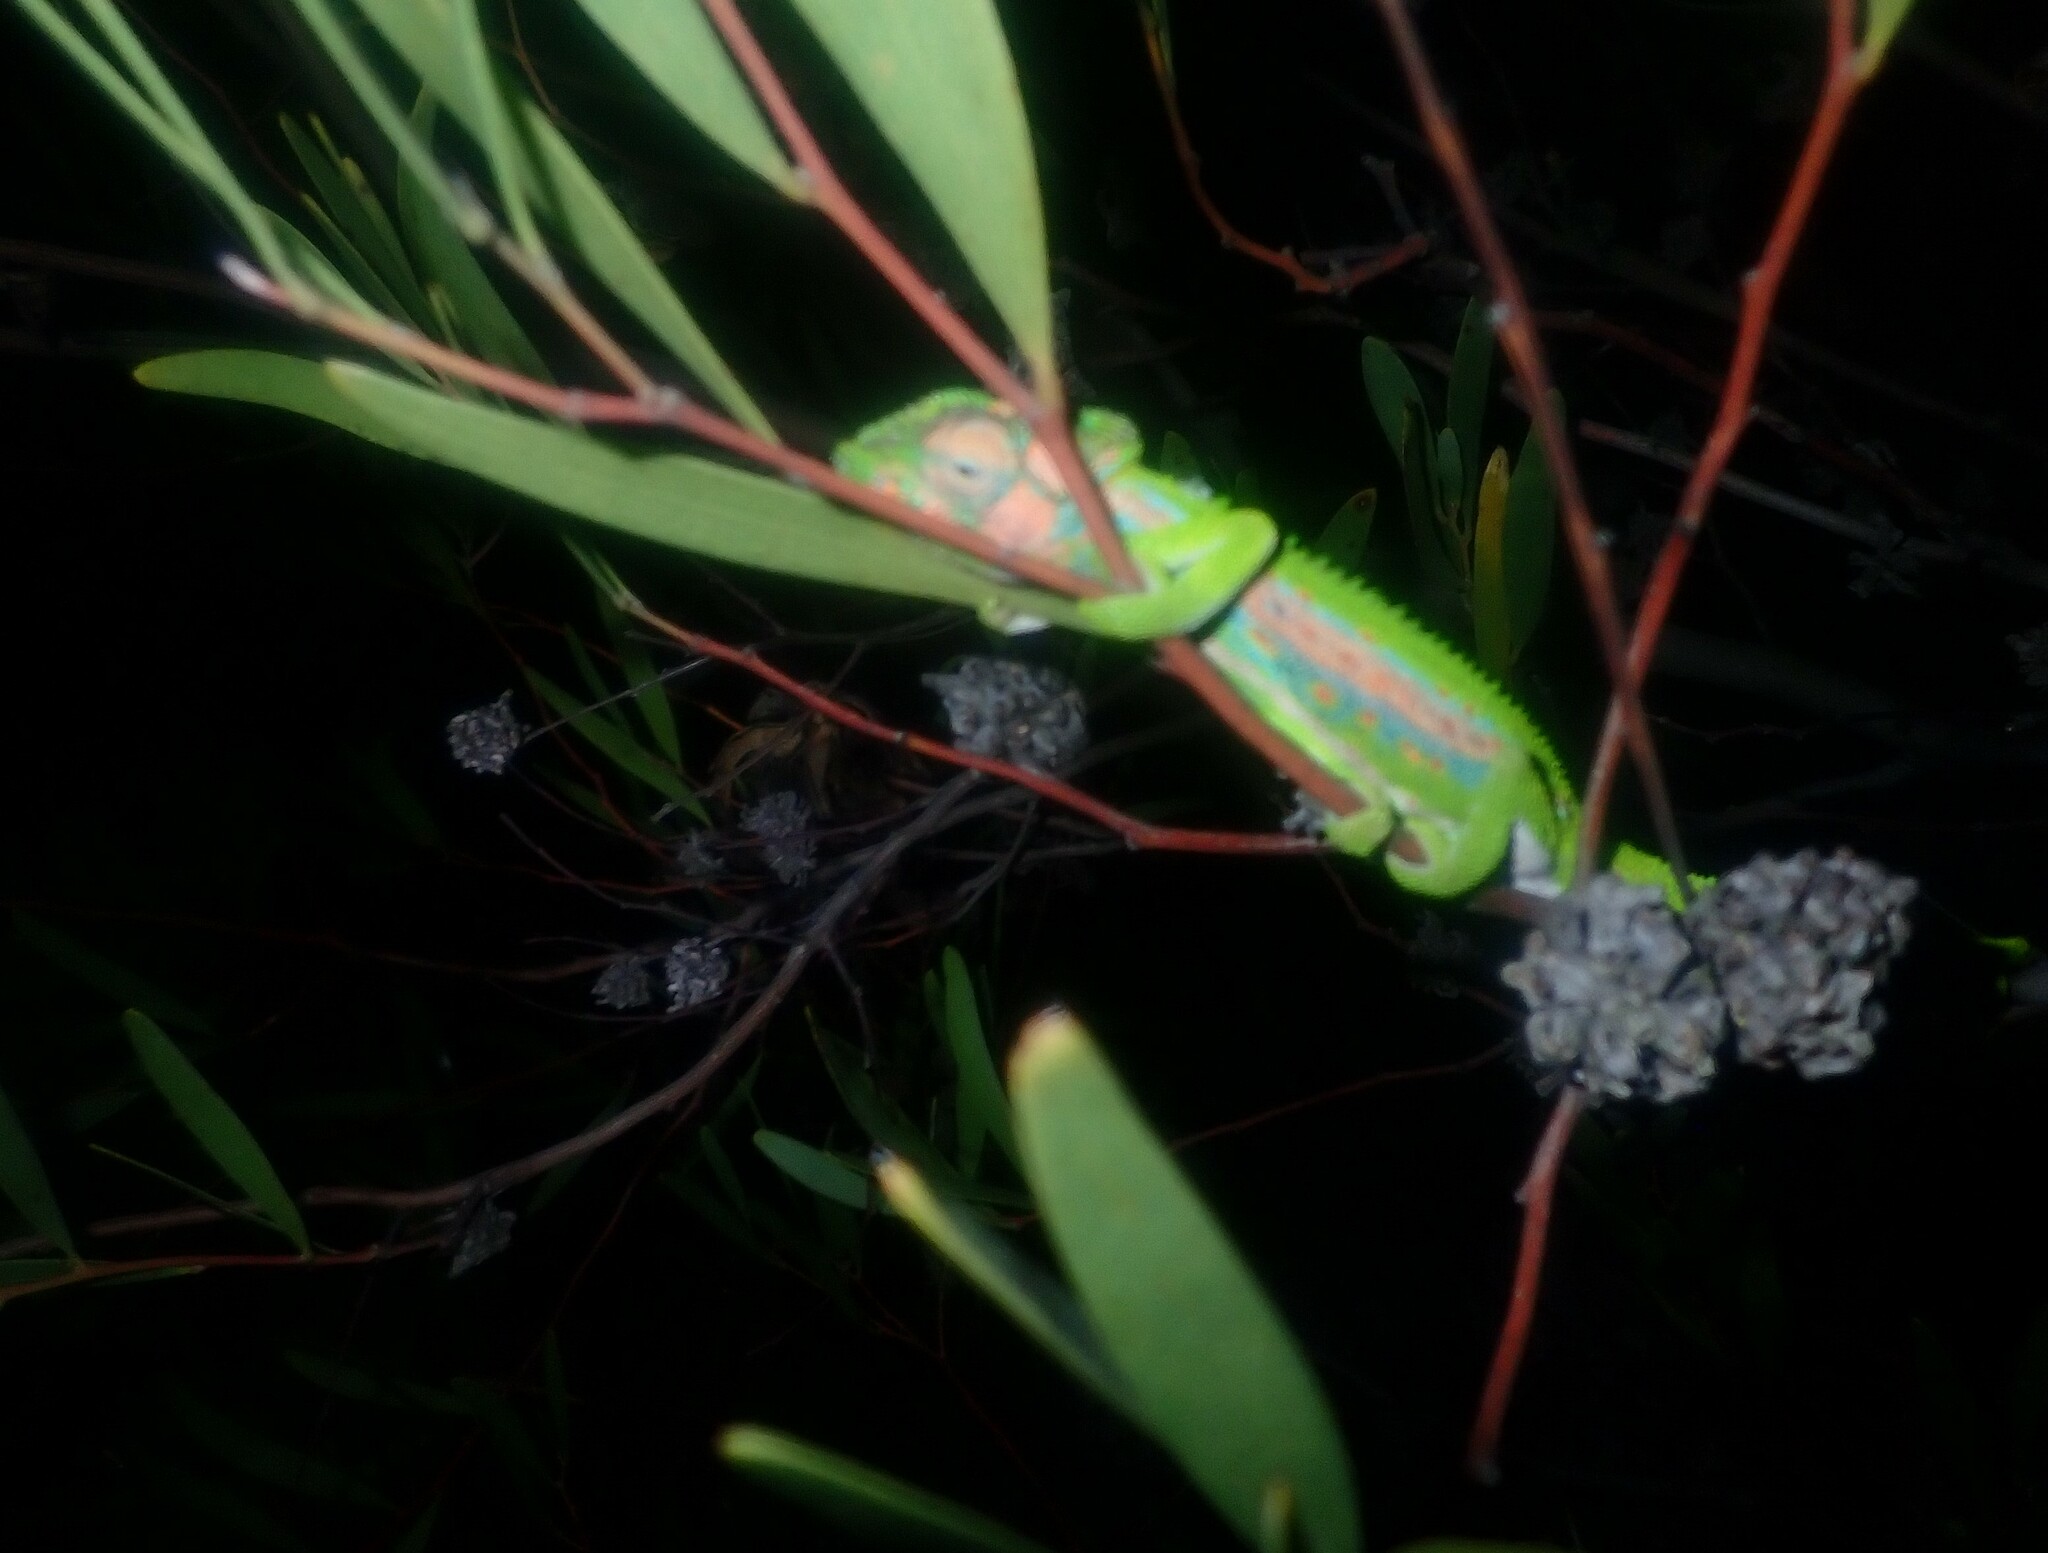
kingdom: Animalia
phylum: Chordata
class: Squamata
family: Chamaeleonidae
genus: Bradypodion
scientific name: Bradypodion pumilum
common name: Cape dwarf chameleon
